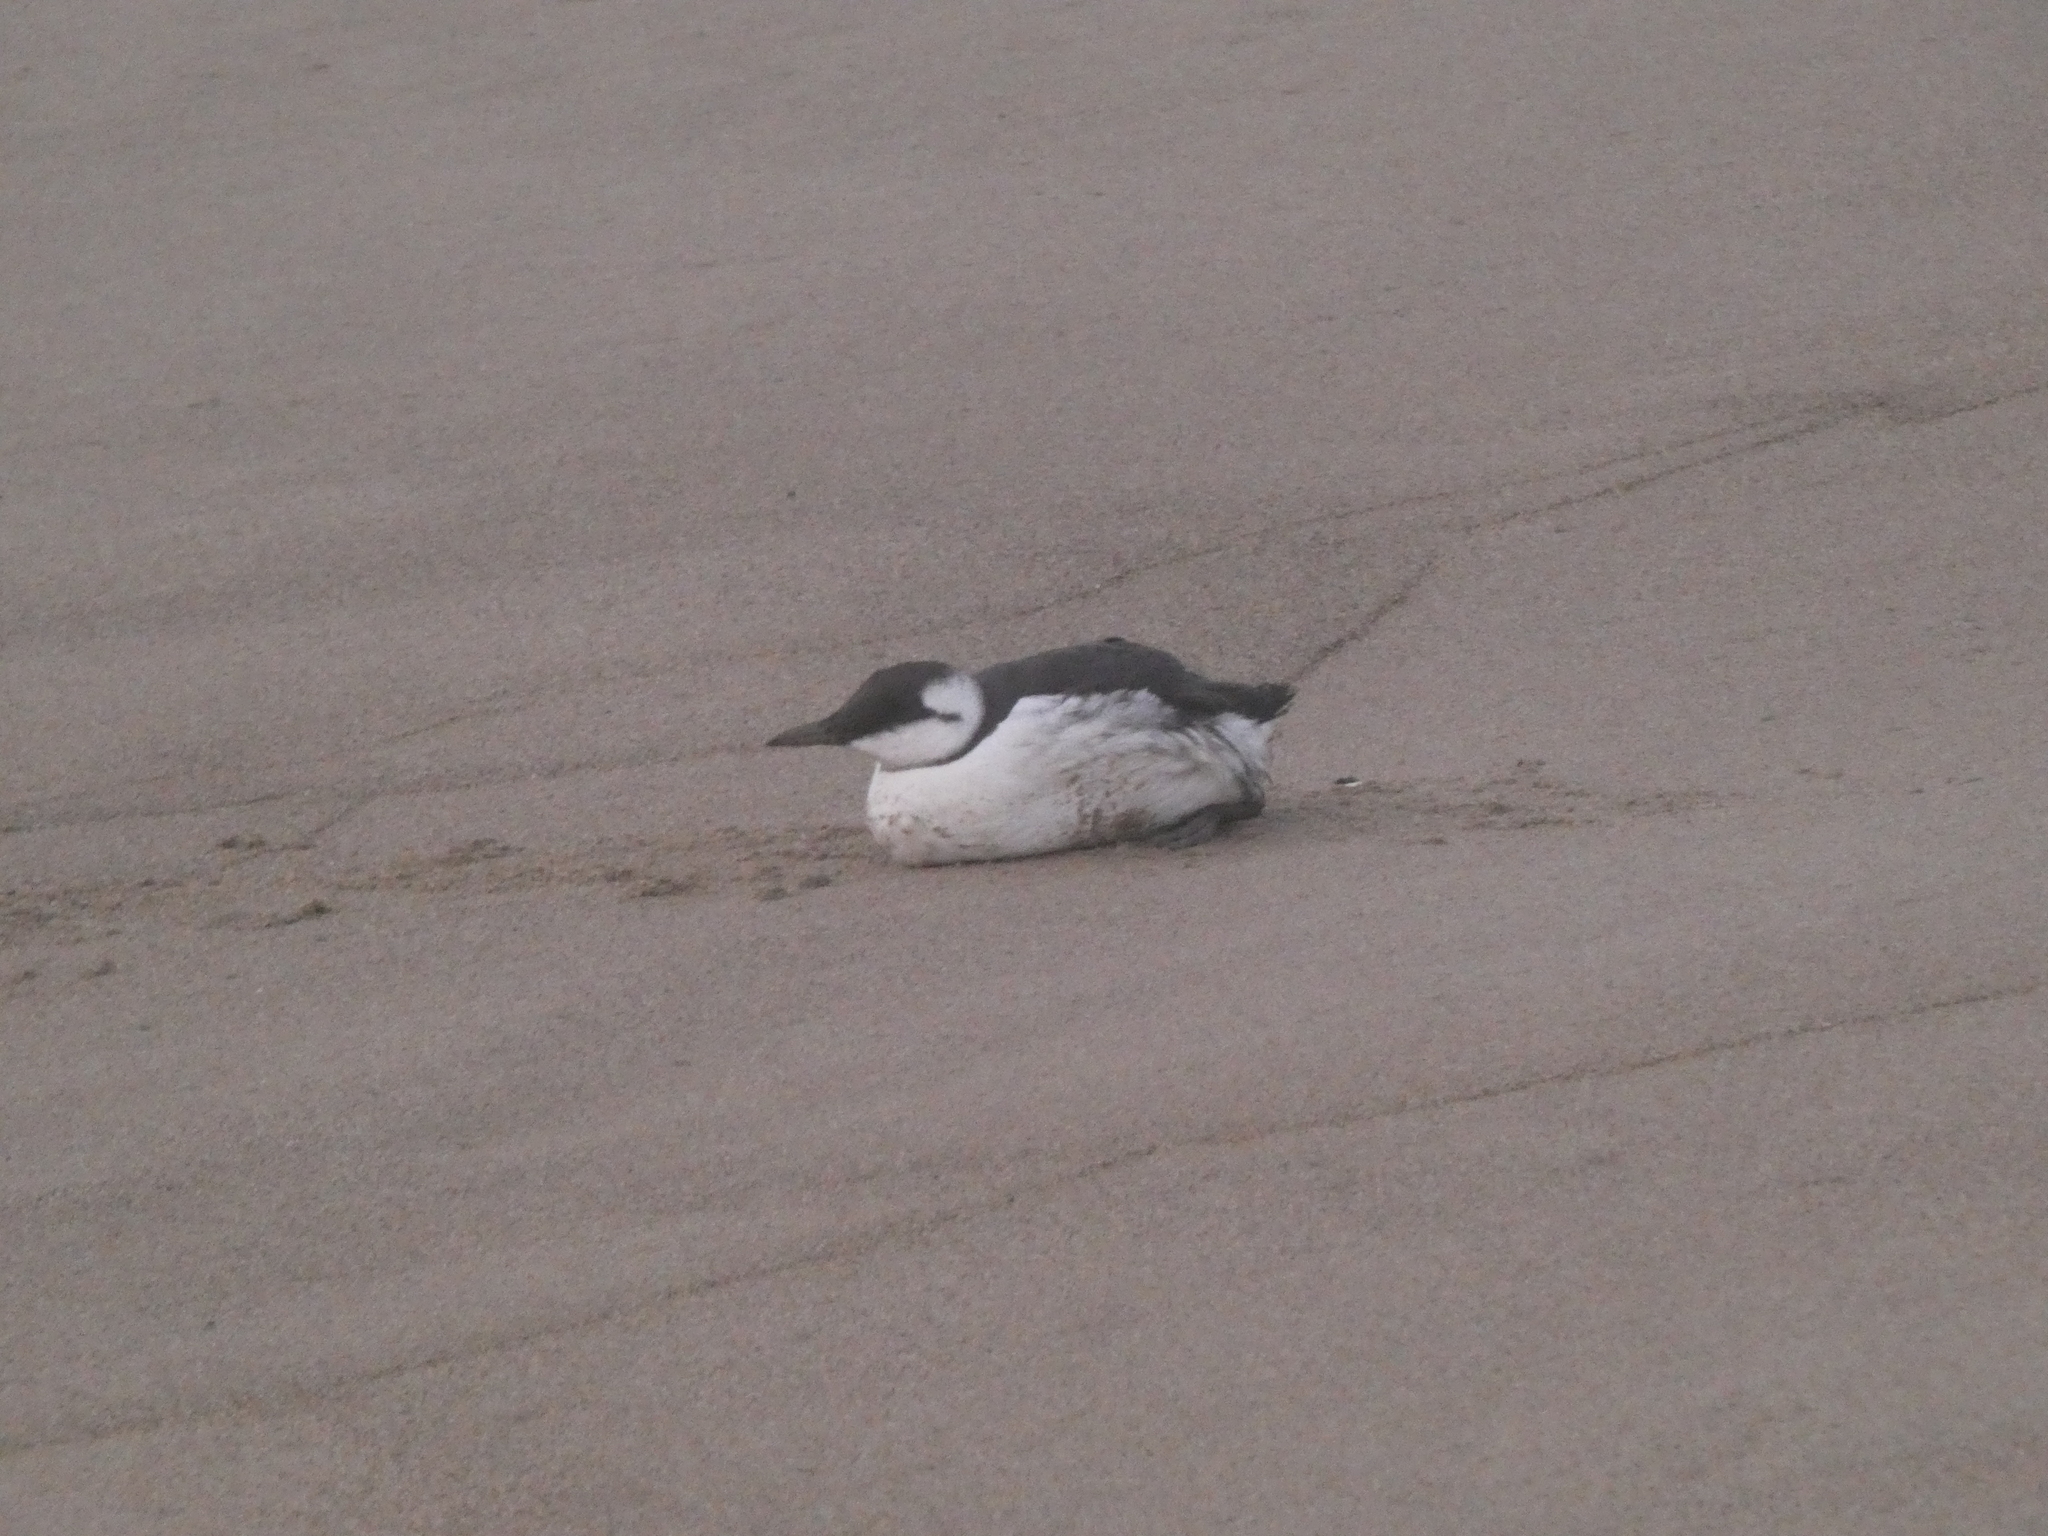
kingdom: Animalia
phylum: Chordata
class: Aves
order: Charadriiformes
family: Alcidae
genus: Uria
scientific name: Uria aalge
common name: Common murre
